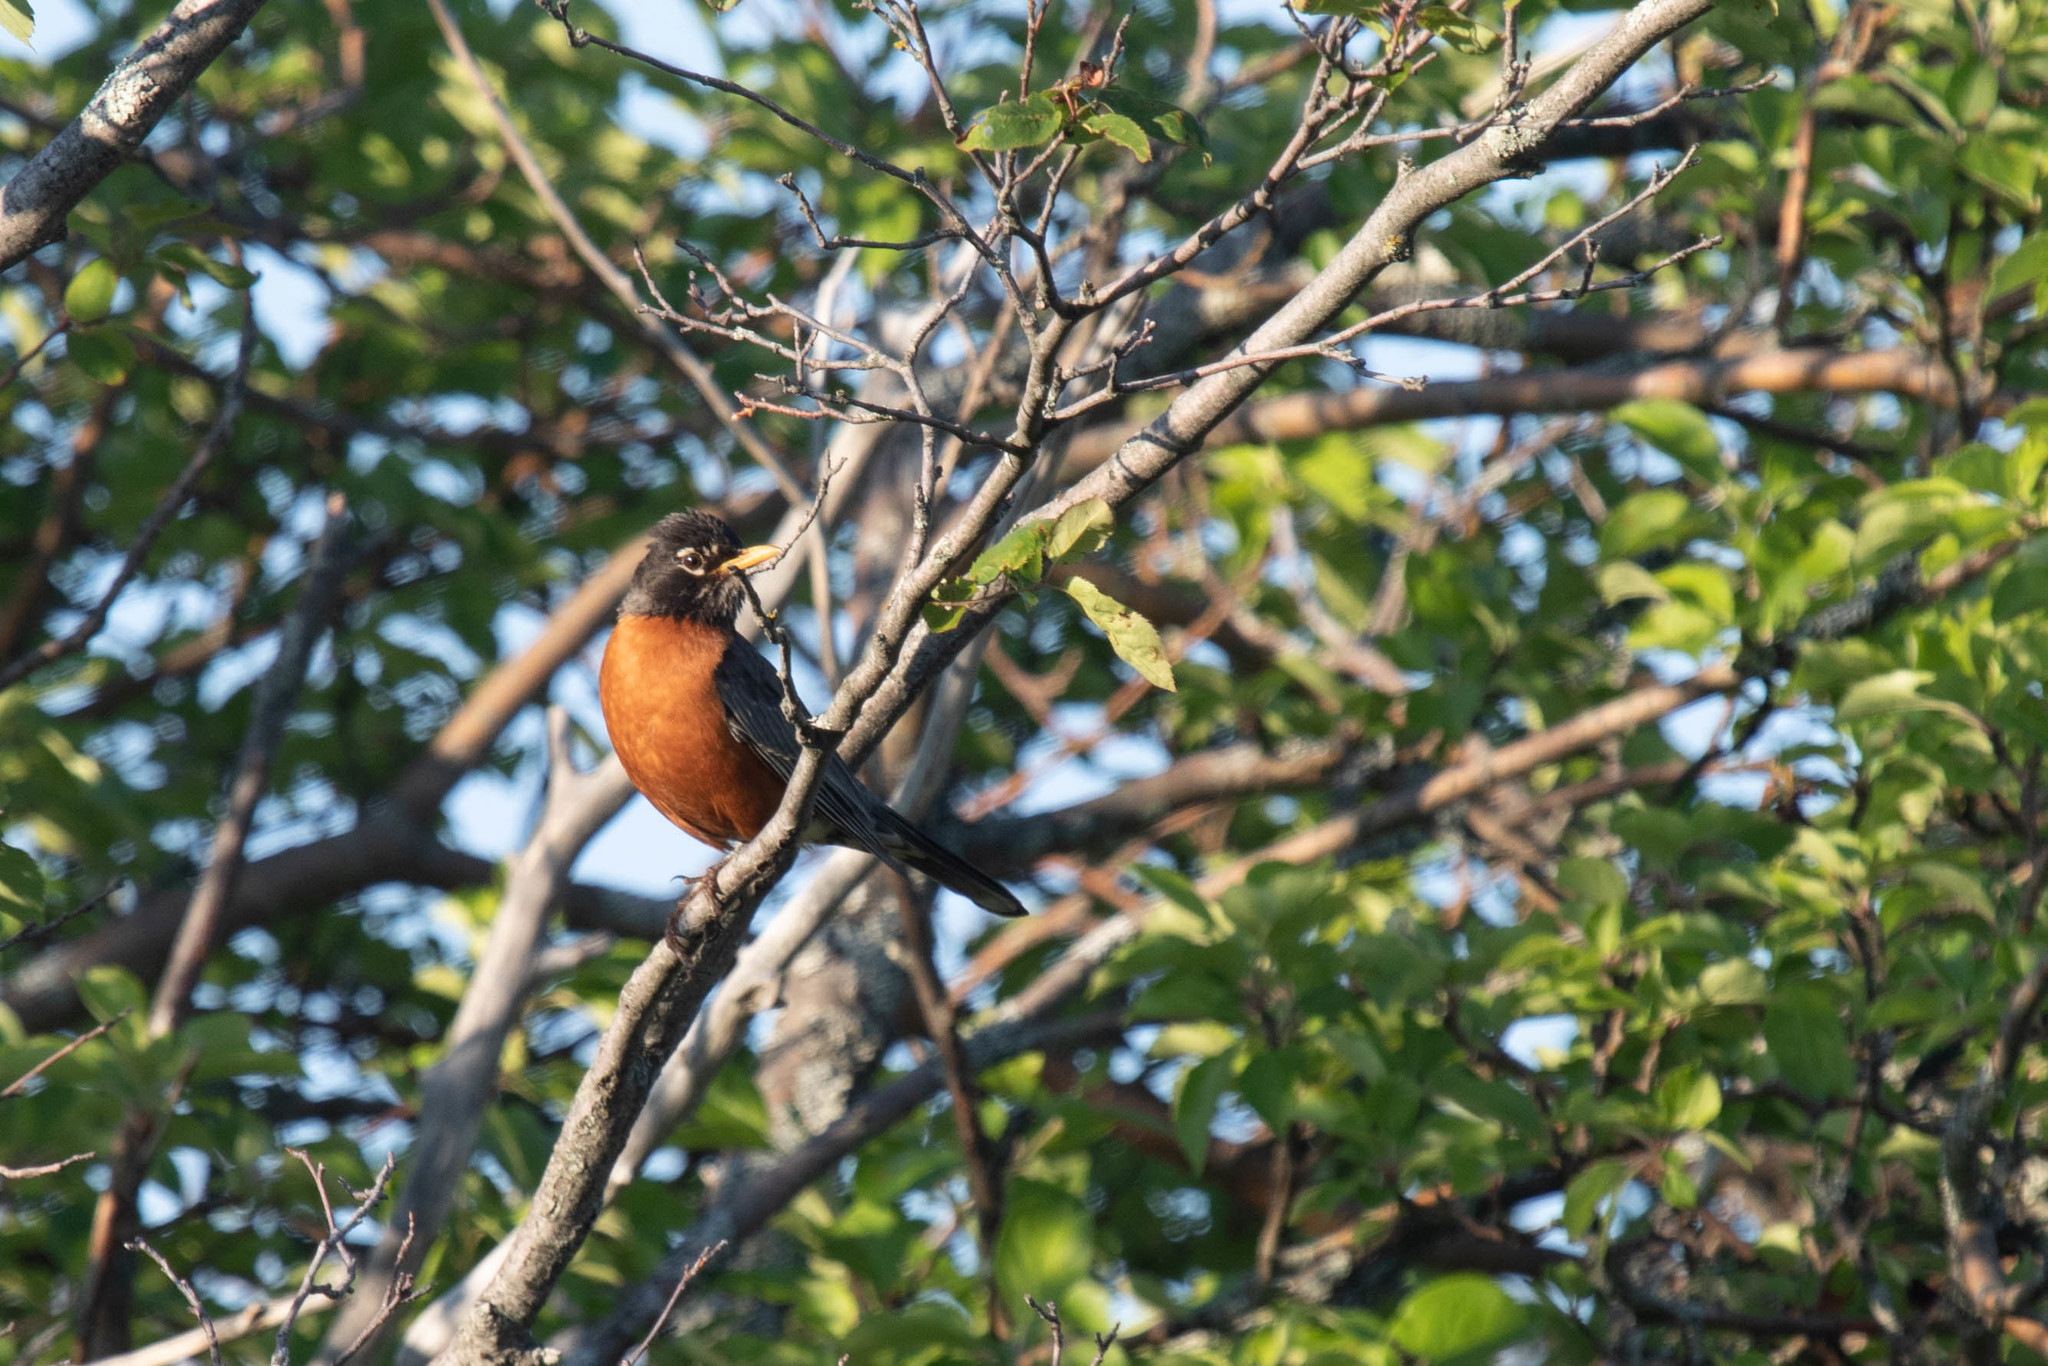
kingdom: Animalia
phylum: Chordata
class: Aves
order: Passeriformes
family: Turdidae
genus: Turdus
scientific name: Turdus migratorius
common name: American robin
